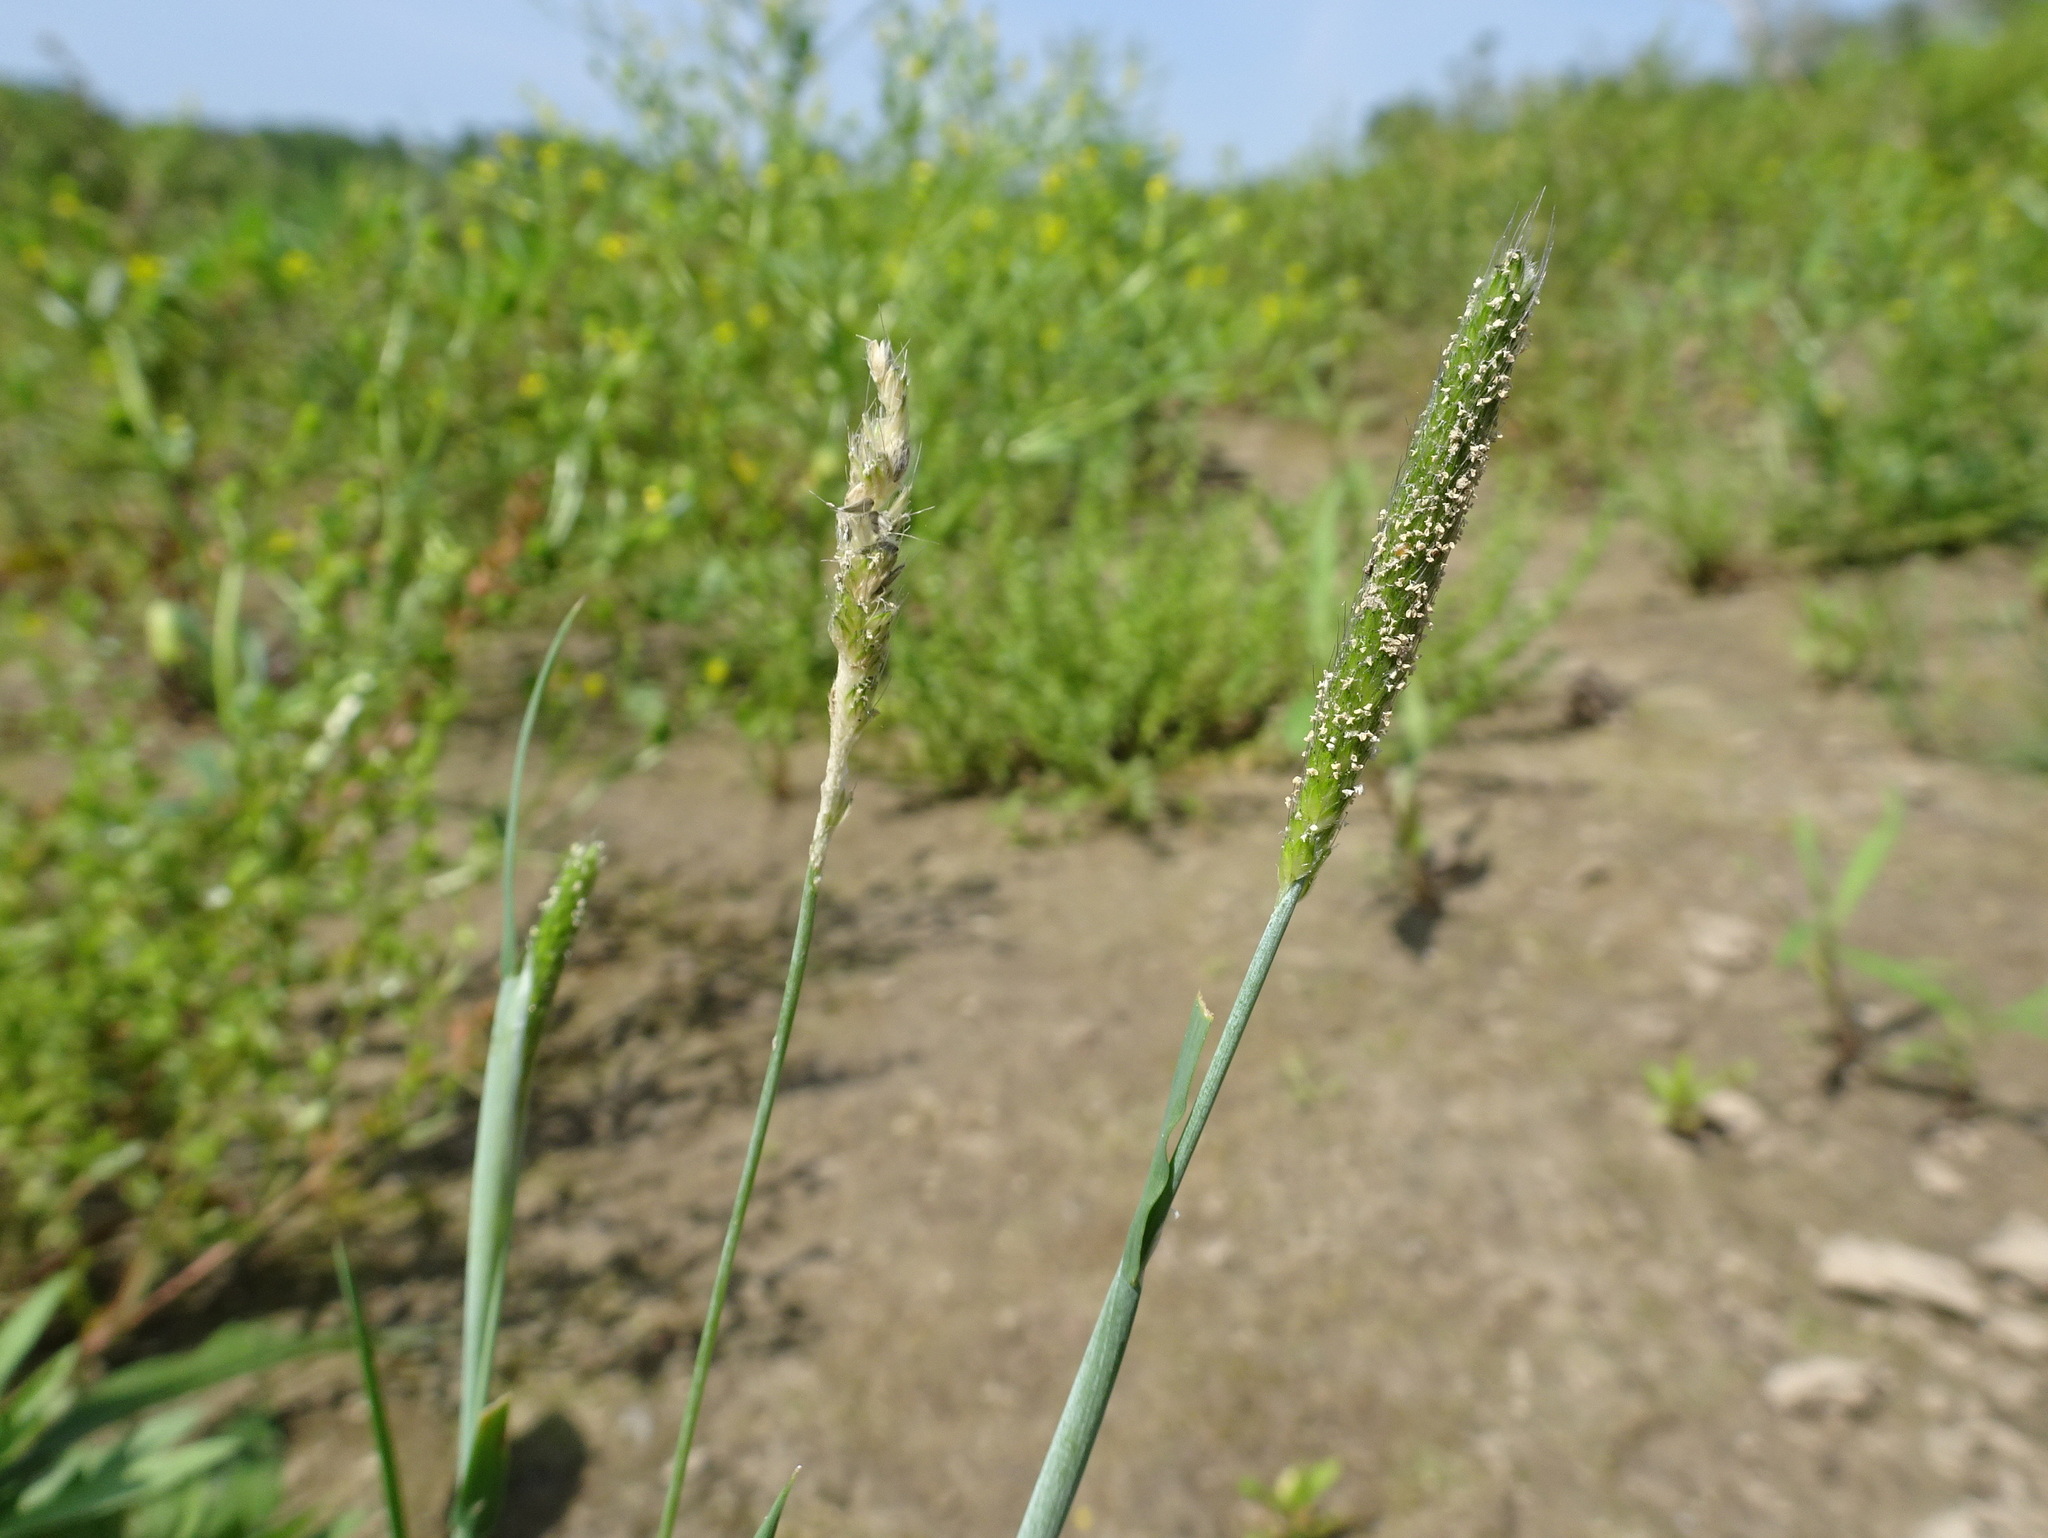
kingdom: Plantae
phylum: Tracheophyta
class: Liliopsida
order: Poales
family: Poaceae
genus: Alopecurus
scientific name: Alopecurus carolinianus
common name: Tufted foxtail
